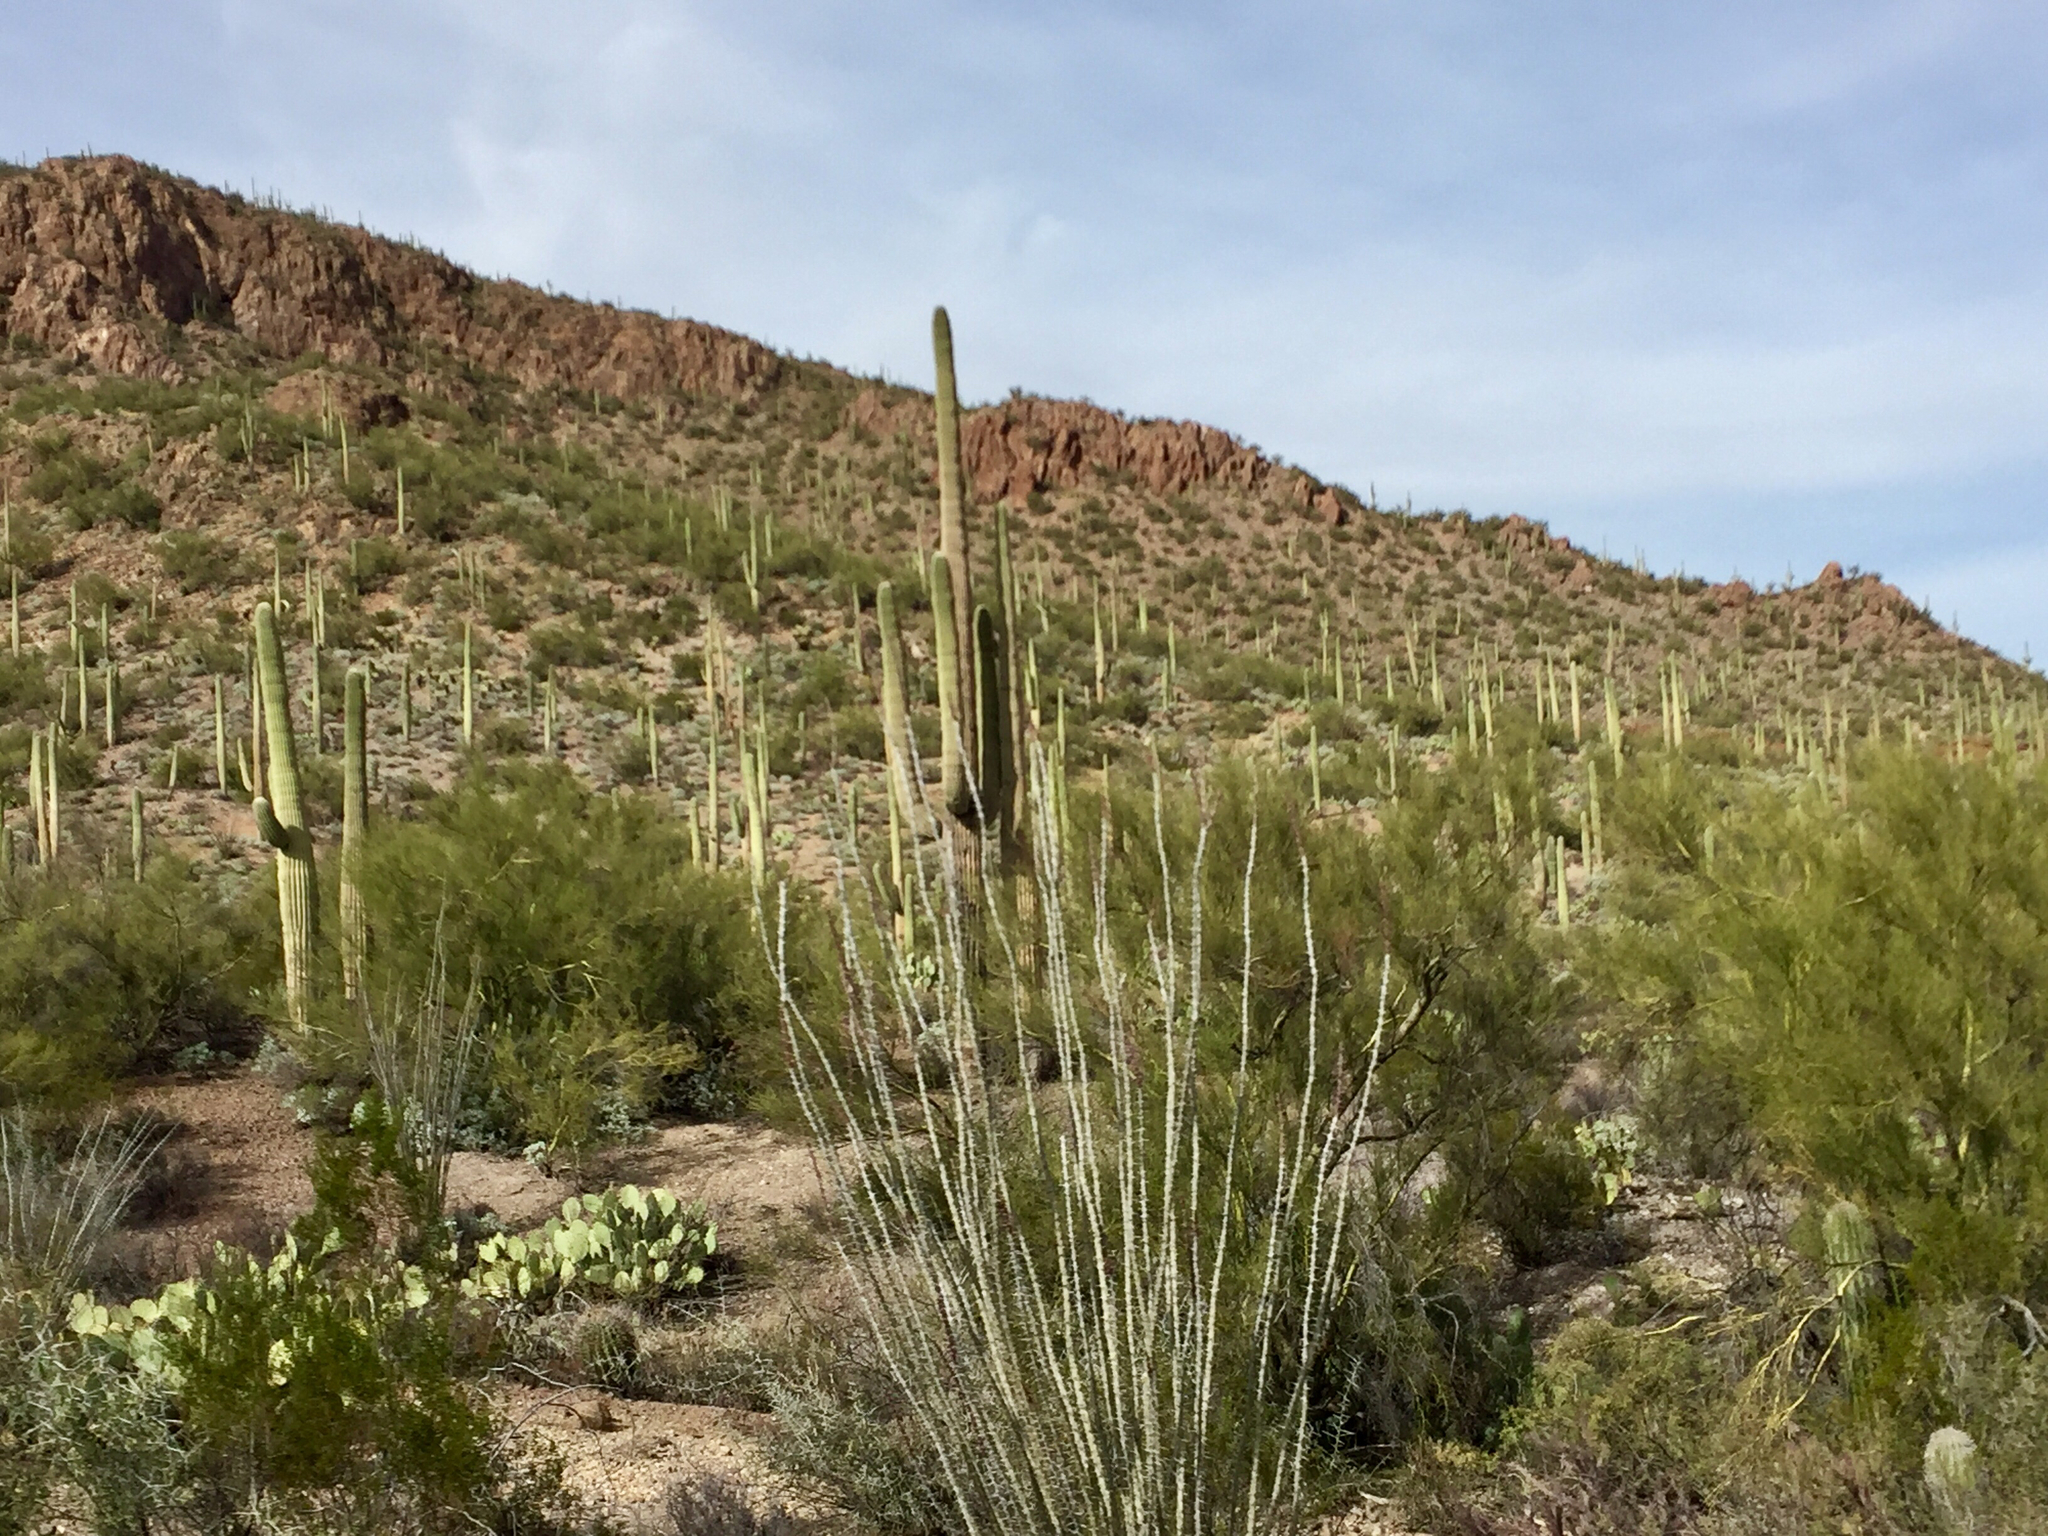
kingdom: Plantae
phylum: Tracheophyta
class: Magnoliopsida
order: Ericales
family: Fouquieriaceae
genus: Fouquieria
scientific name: Fouquieria splendens
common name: Vine-cactus
